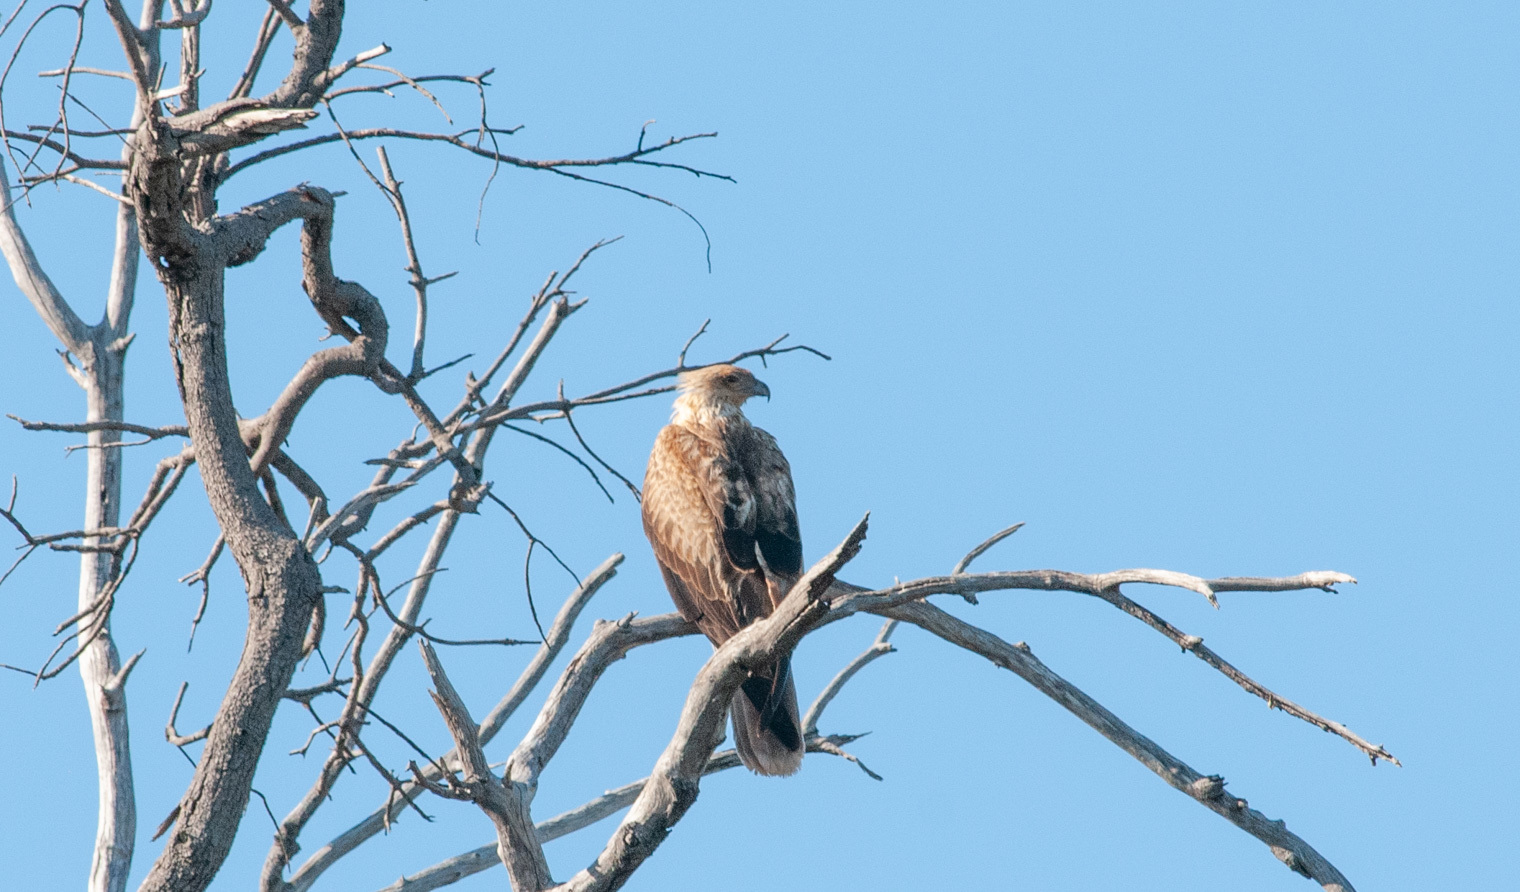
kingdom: Animalia
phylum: Chordata
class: Aves
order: Accipitriformes
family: Accipitridae
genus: Haliastur
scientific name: Haliastur sphenurus
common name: Whistling kite
